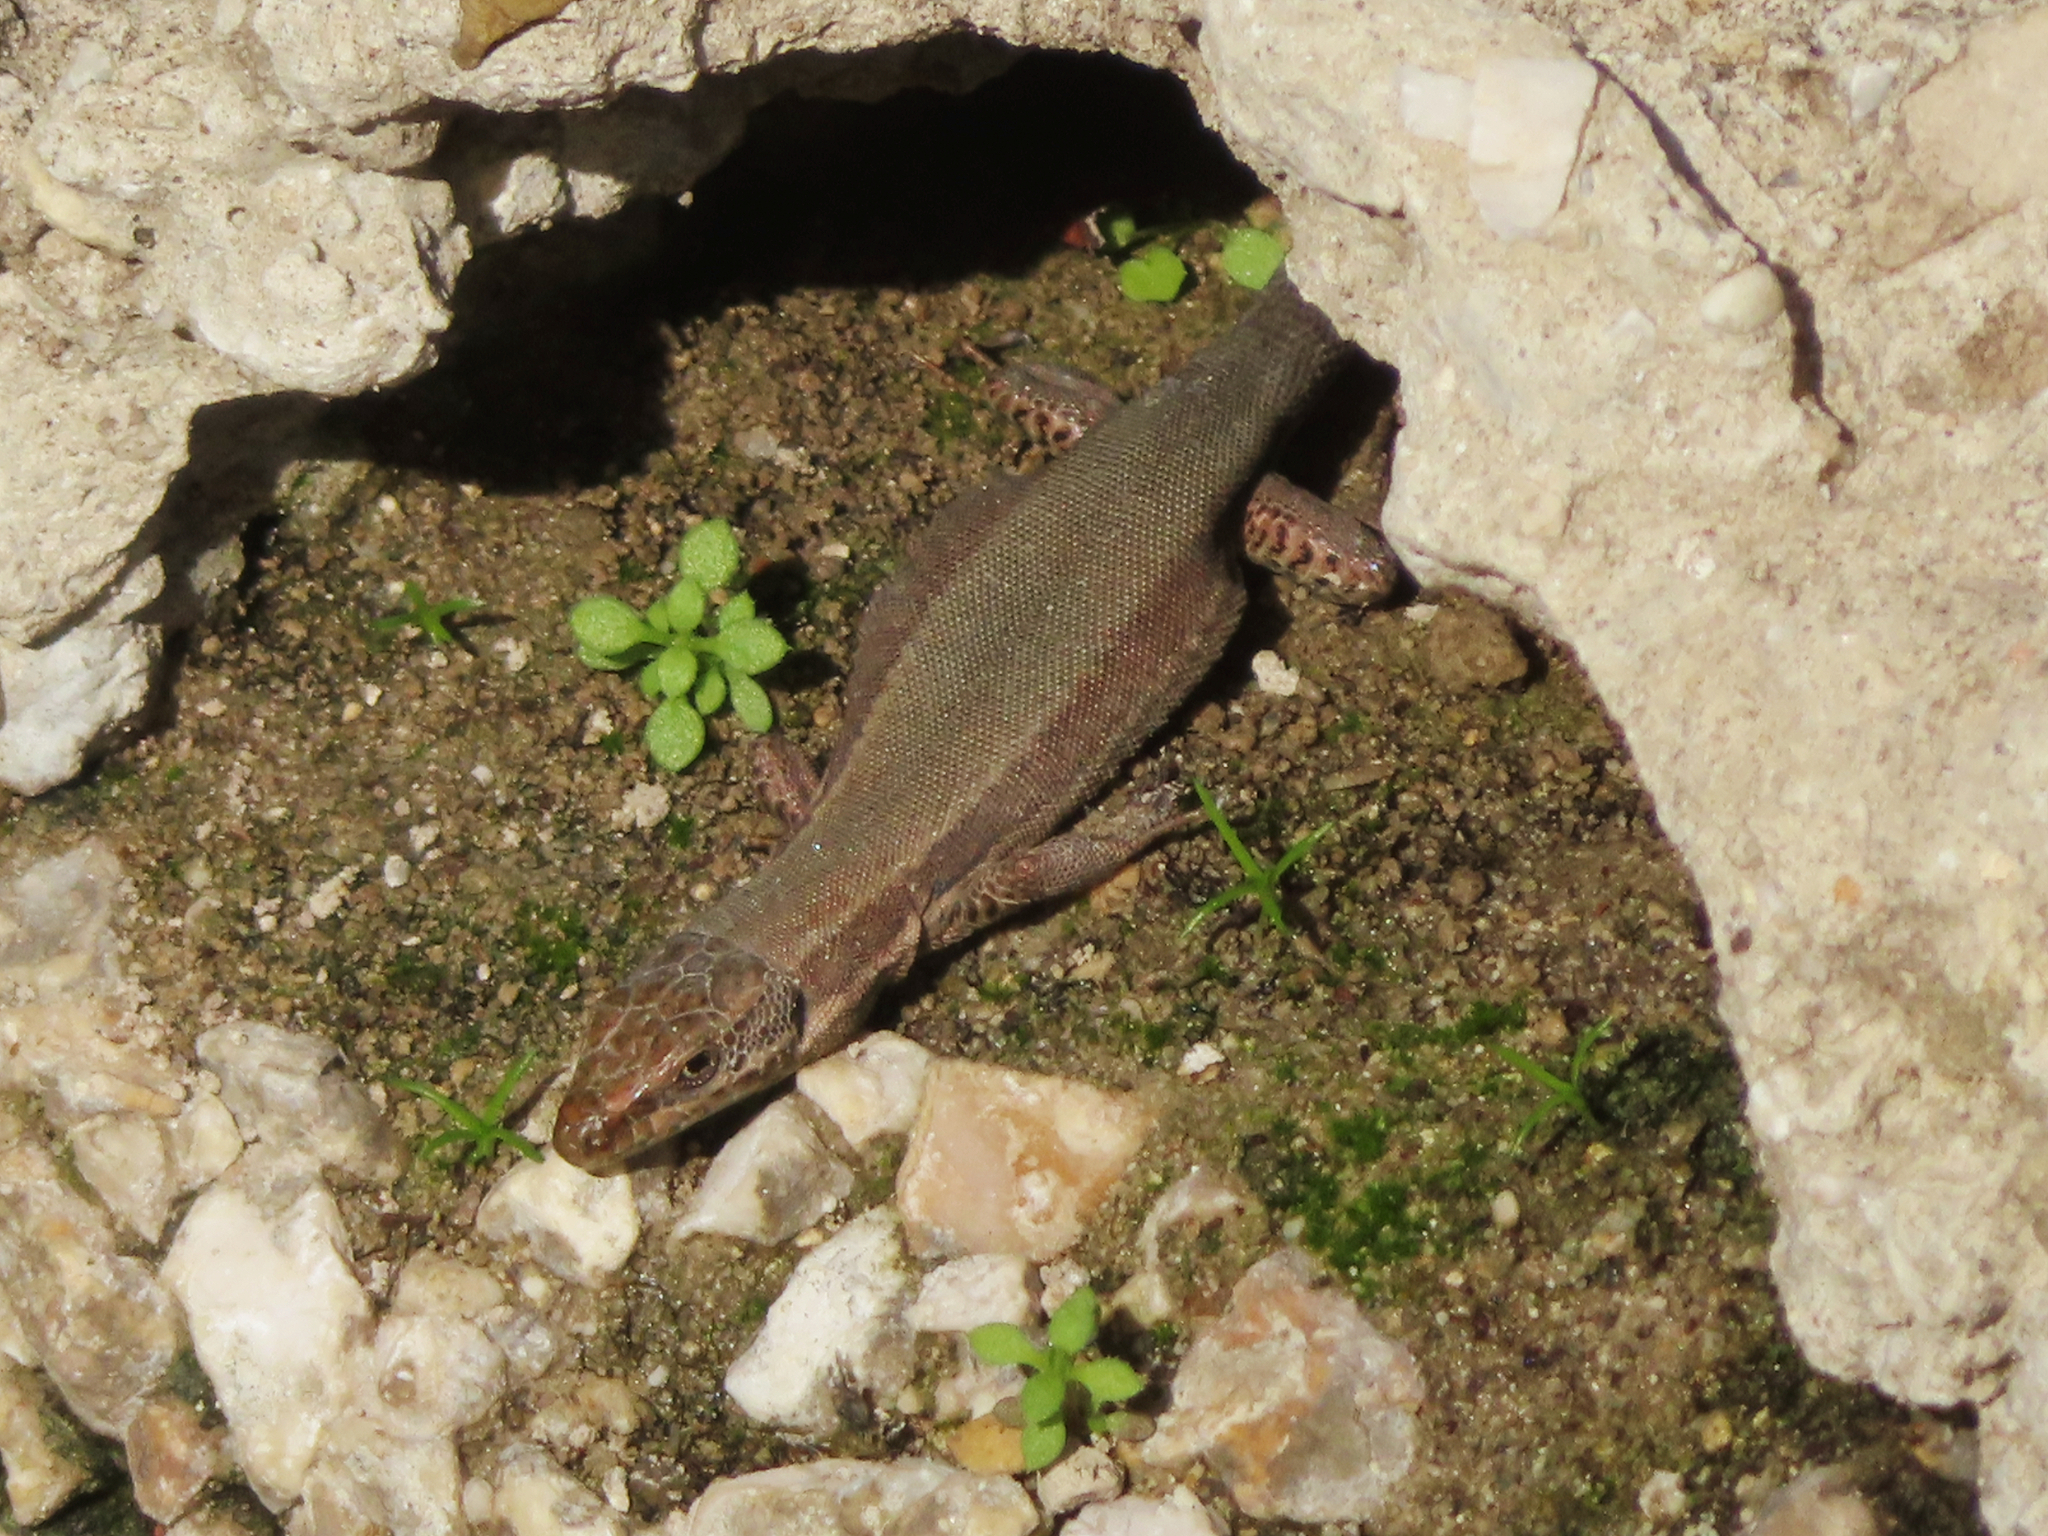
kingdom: Animalia
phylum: Chordata
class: Squamata
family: Lacertidae
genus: Podarcis
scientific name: Podarcis muralis
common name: Common wall lizard
